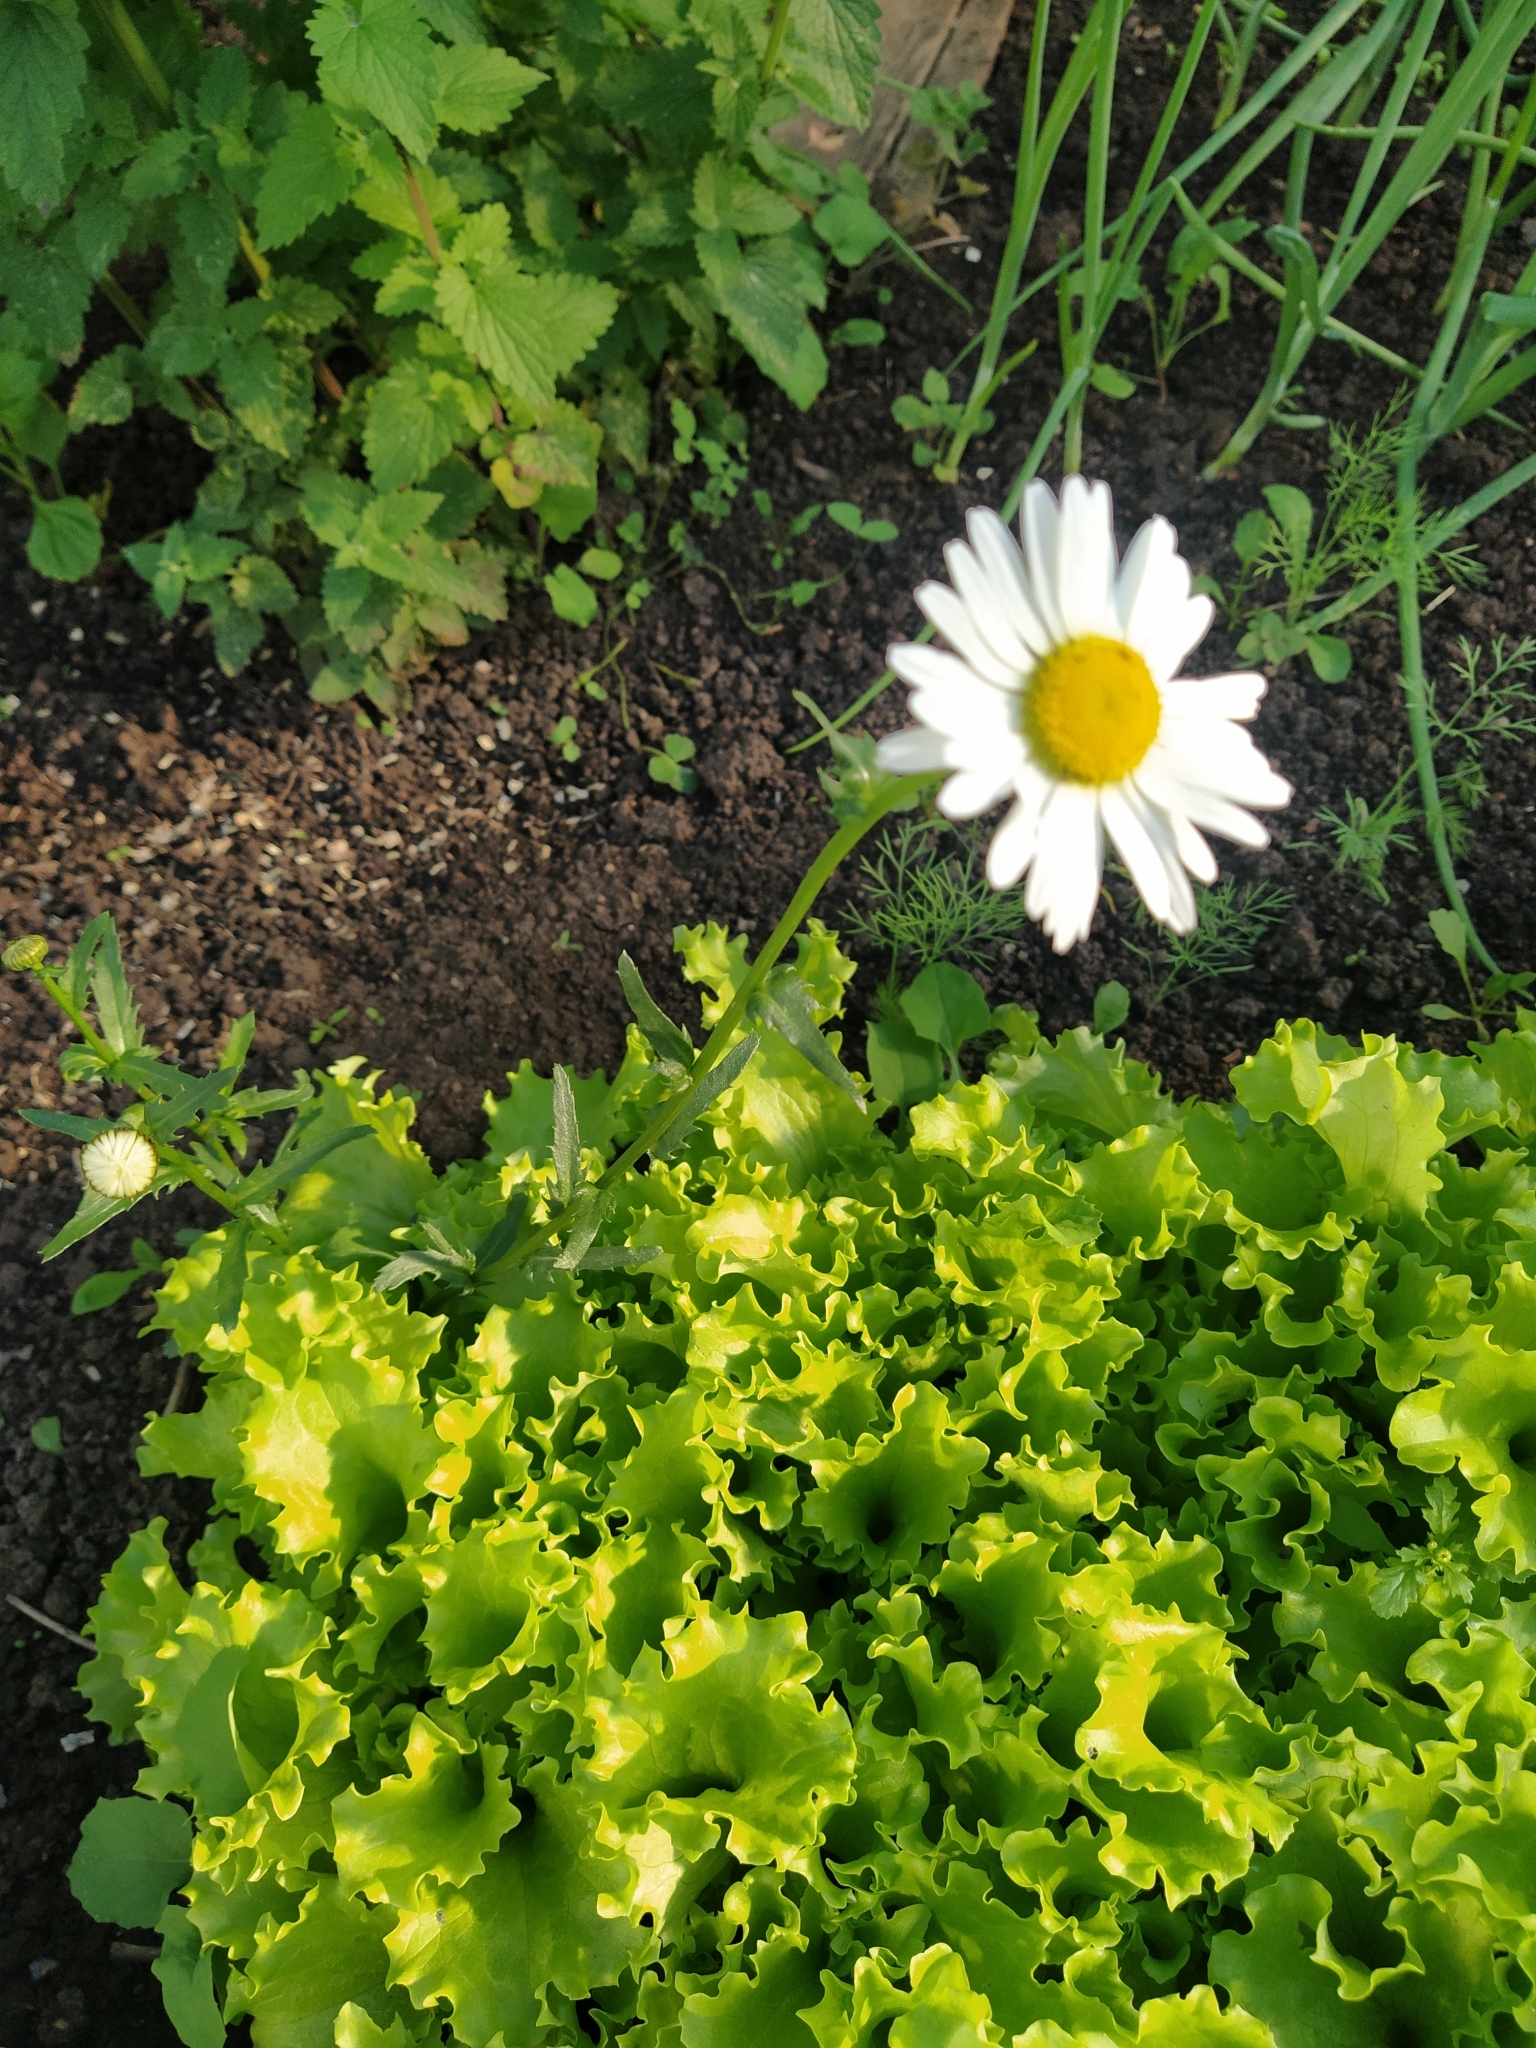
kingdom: Plantae
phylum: Tracheophyta
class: Magnoliopsida
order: Asterales
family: Asteraceae
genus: Leucanthemum
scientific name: Leucanthemum vulgare
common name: Oxeye daisy
